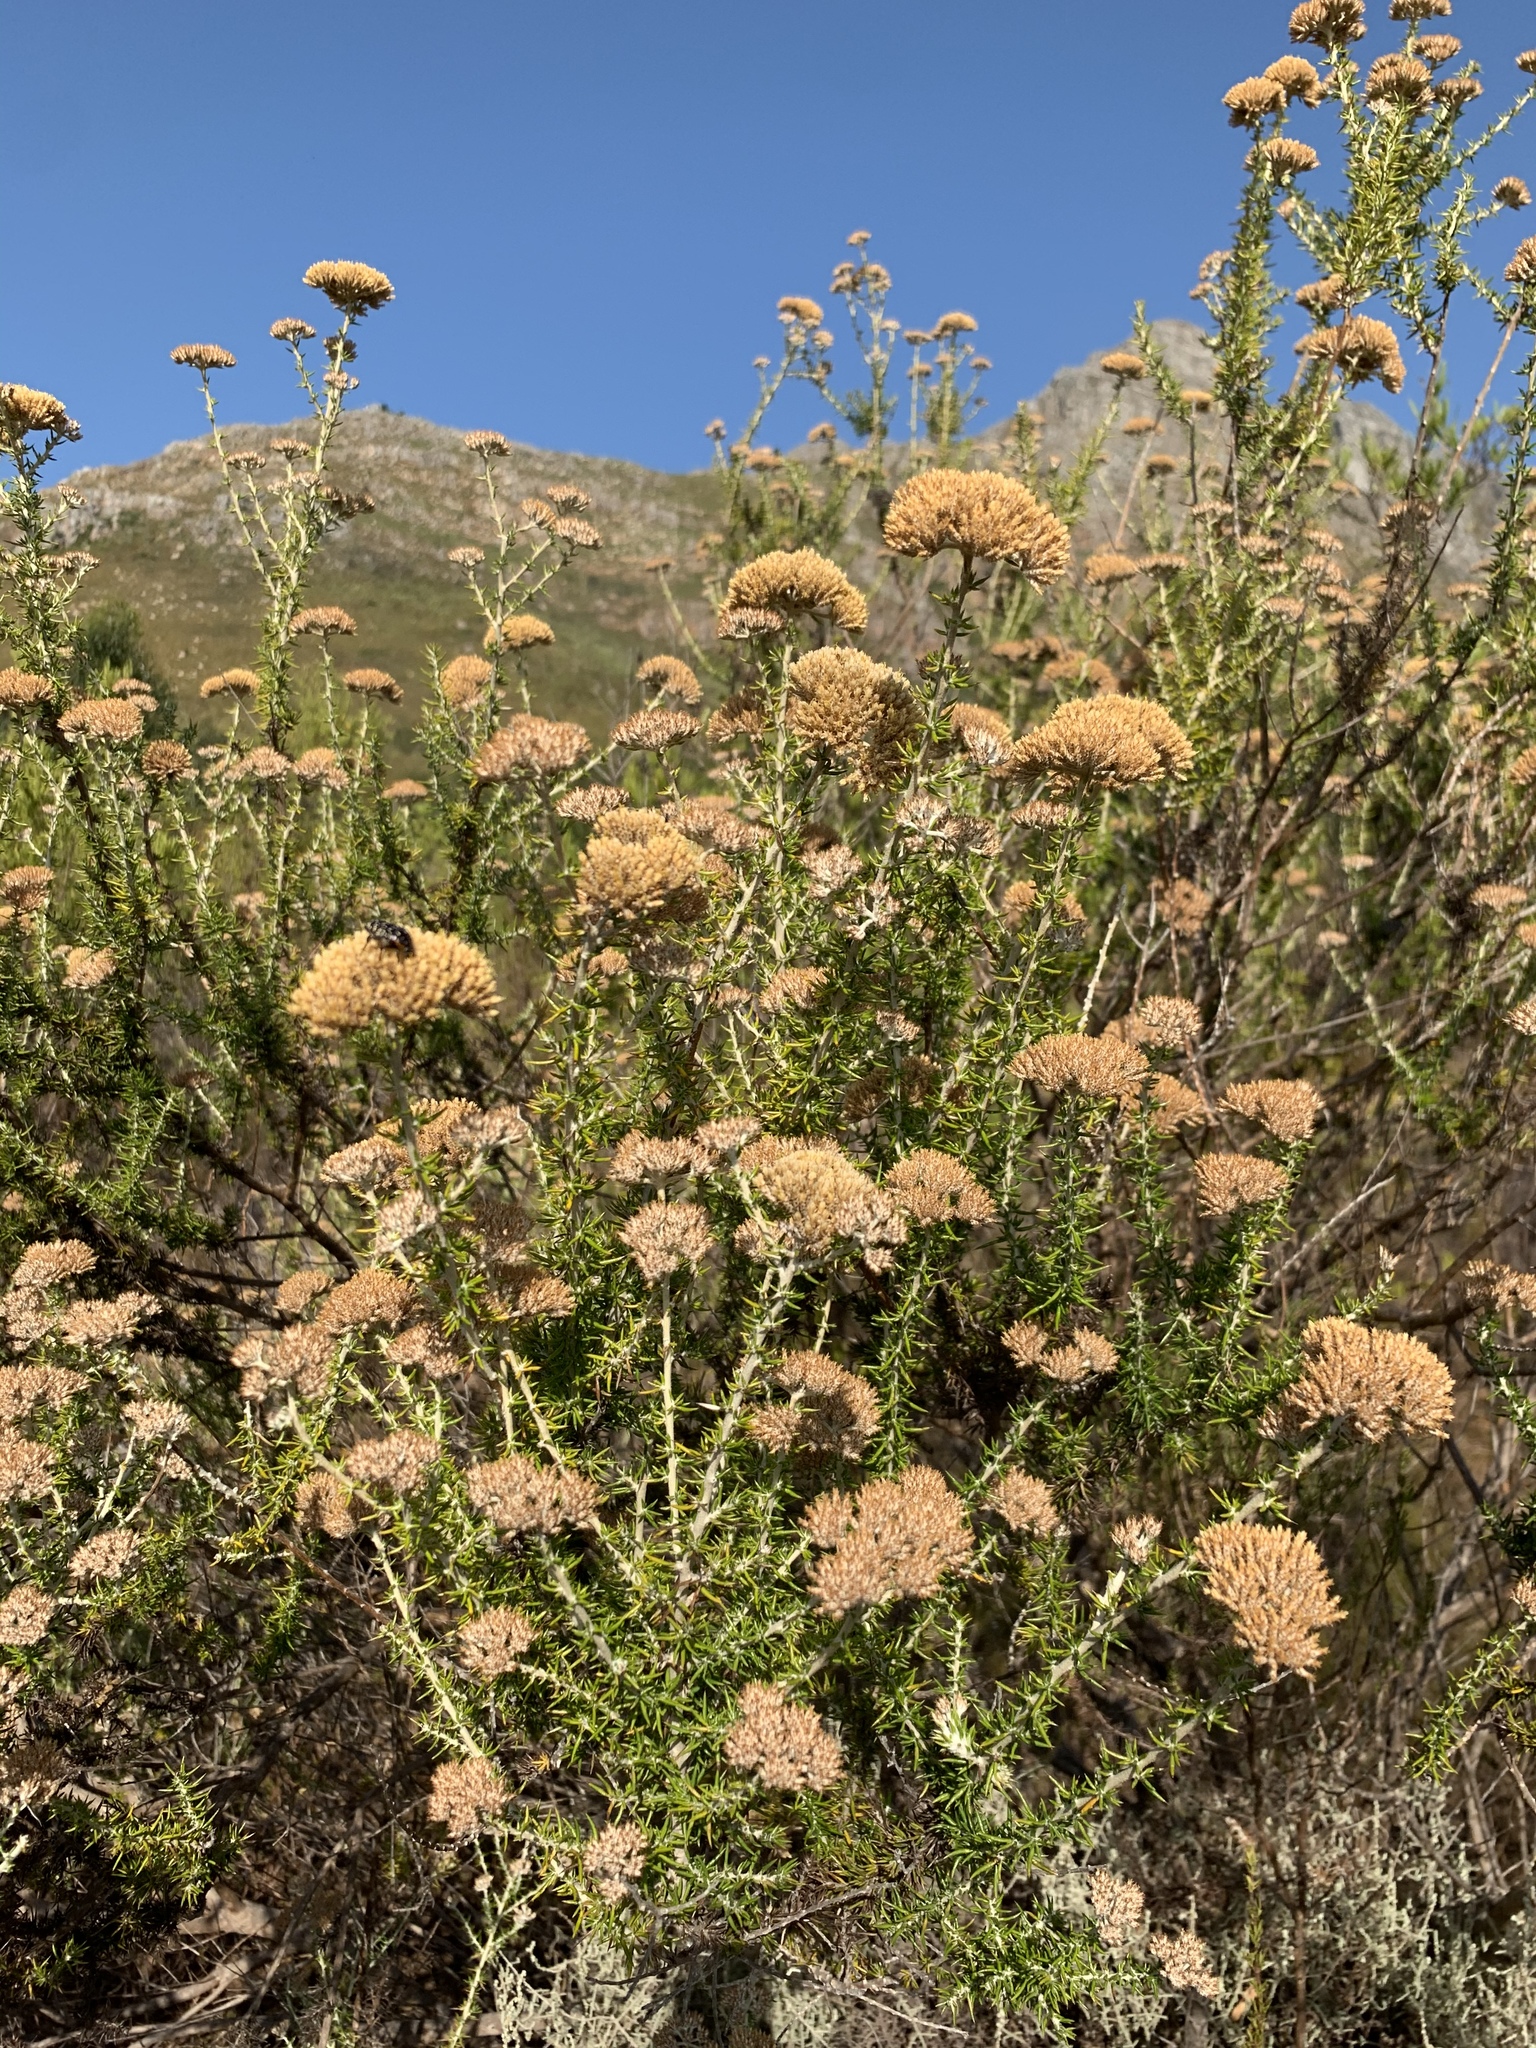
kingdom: Plantae
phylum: Tracheophyta
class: Magnoliopsida
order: Asterales
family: Asteraceae
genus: Metalasia
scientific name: Metalasia dregeana
